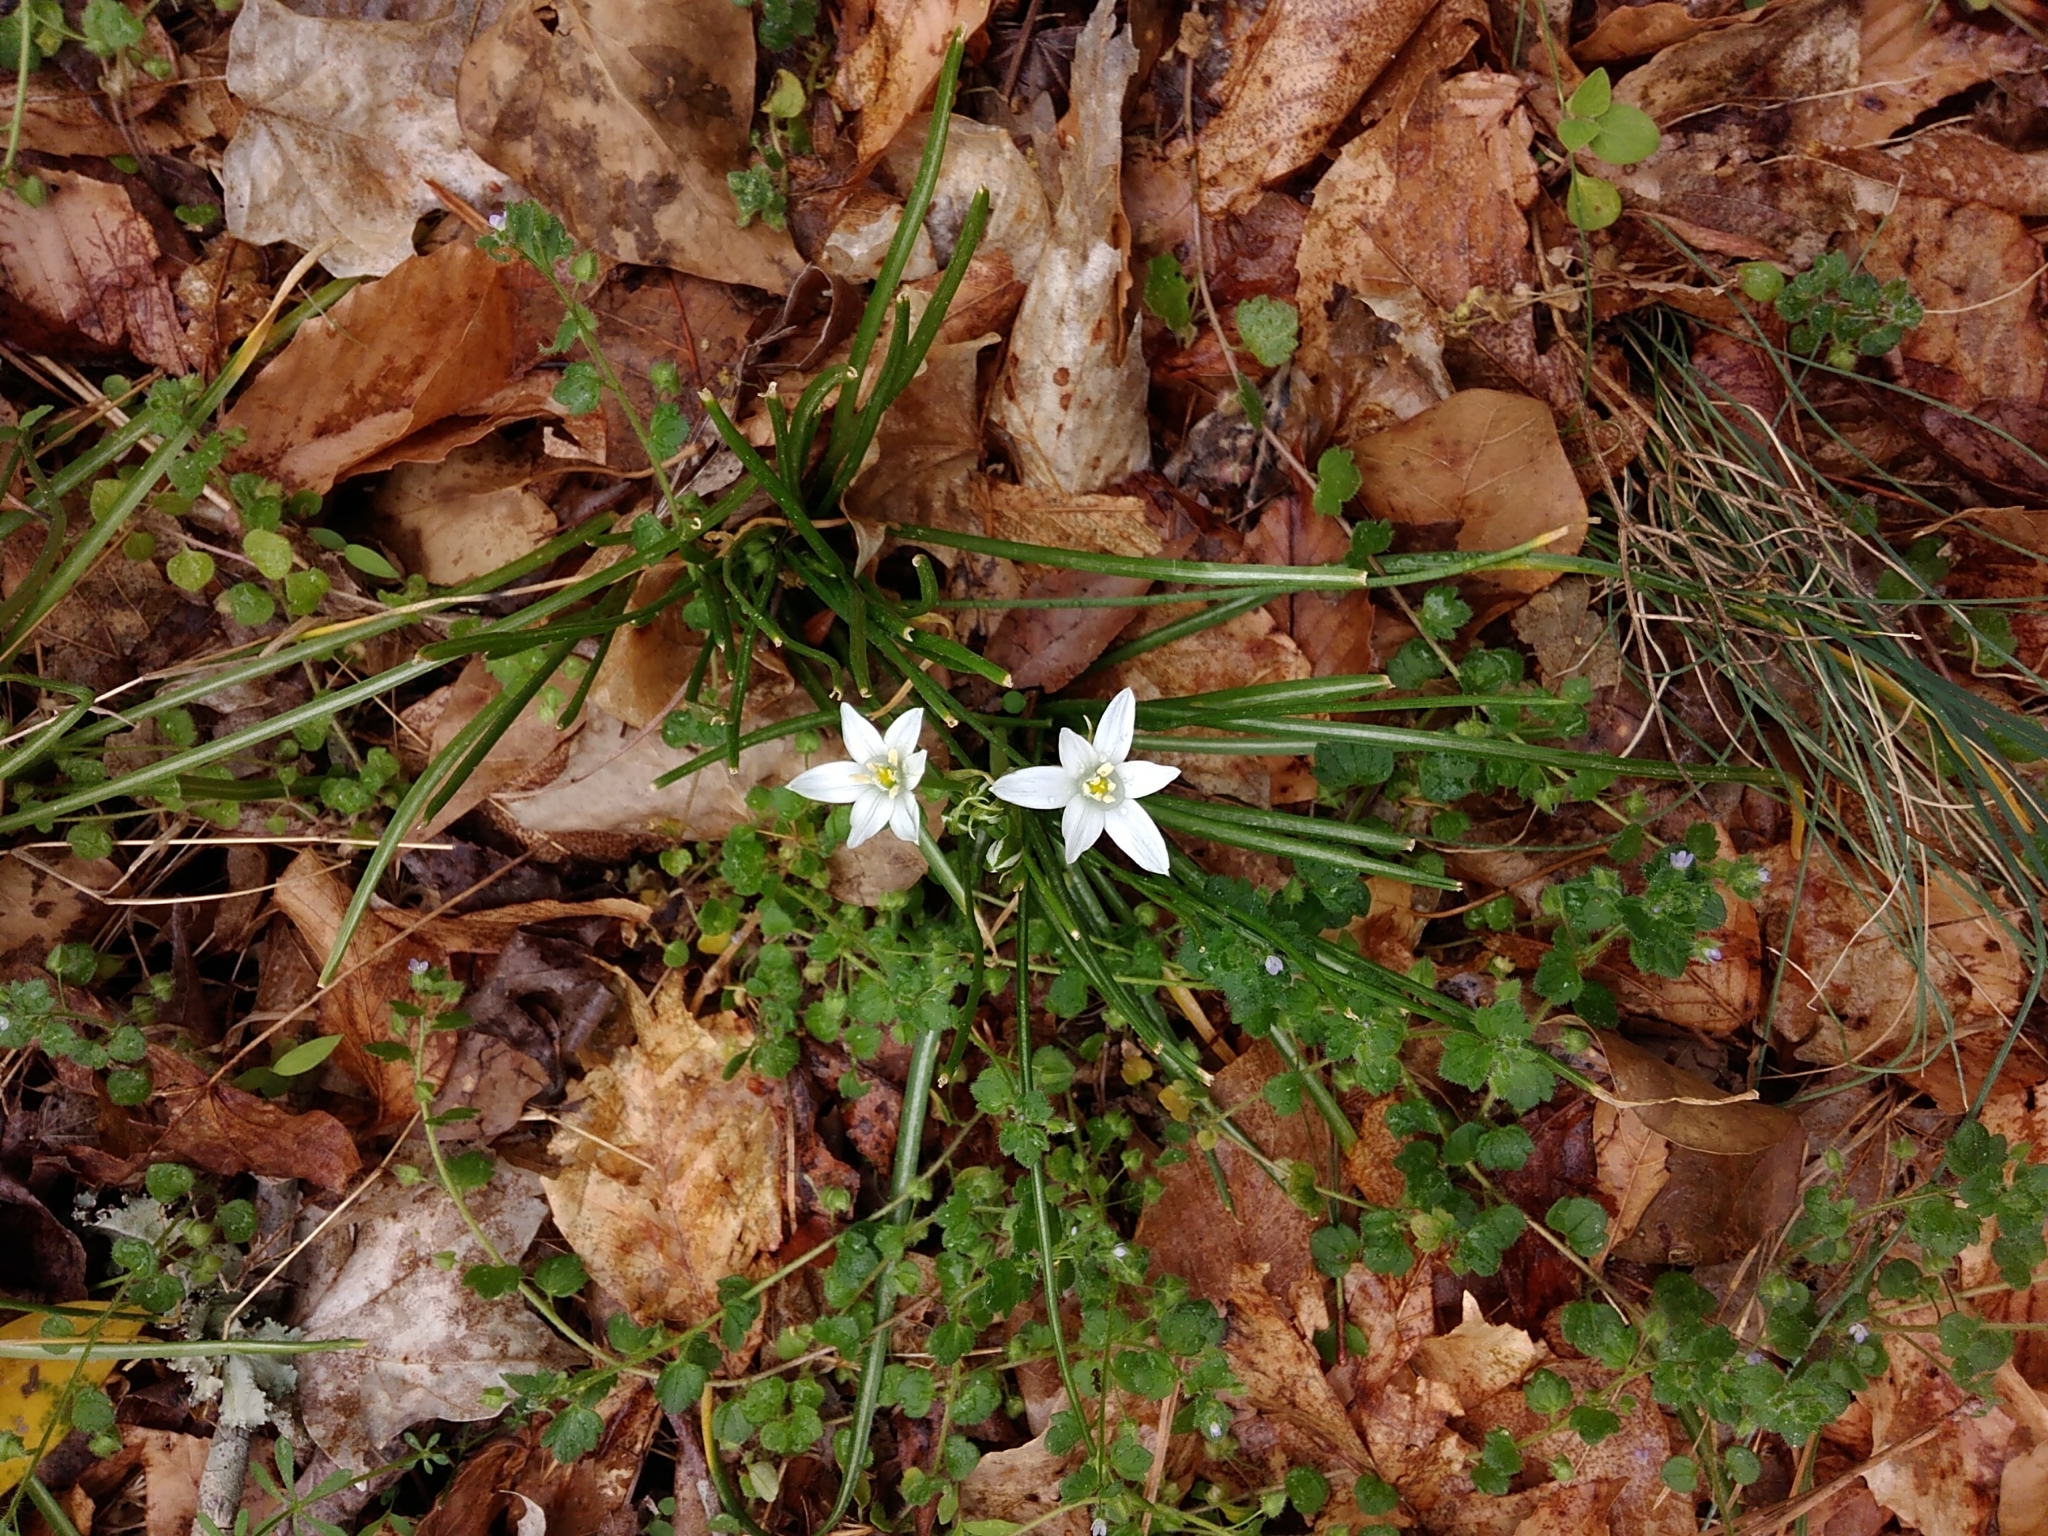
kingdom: Plantae
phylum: Tracheophyta
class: Liliopsida
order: Asparagales
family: Asparagaceae
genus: Ornithogalum
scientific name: Ornithogalum umbellatum
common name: Garden star-of-bethlehem
